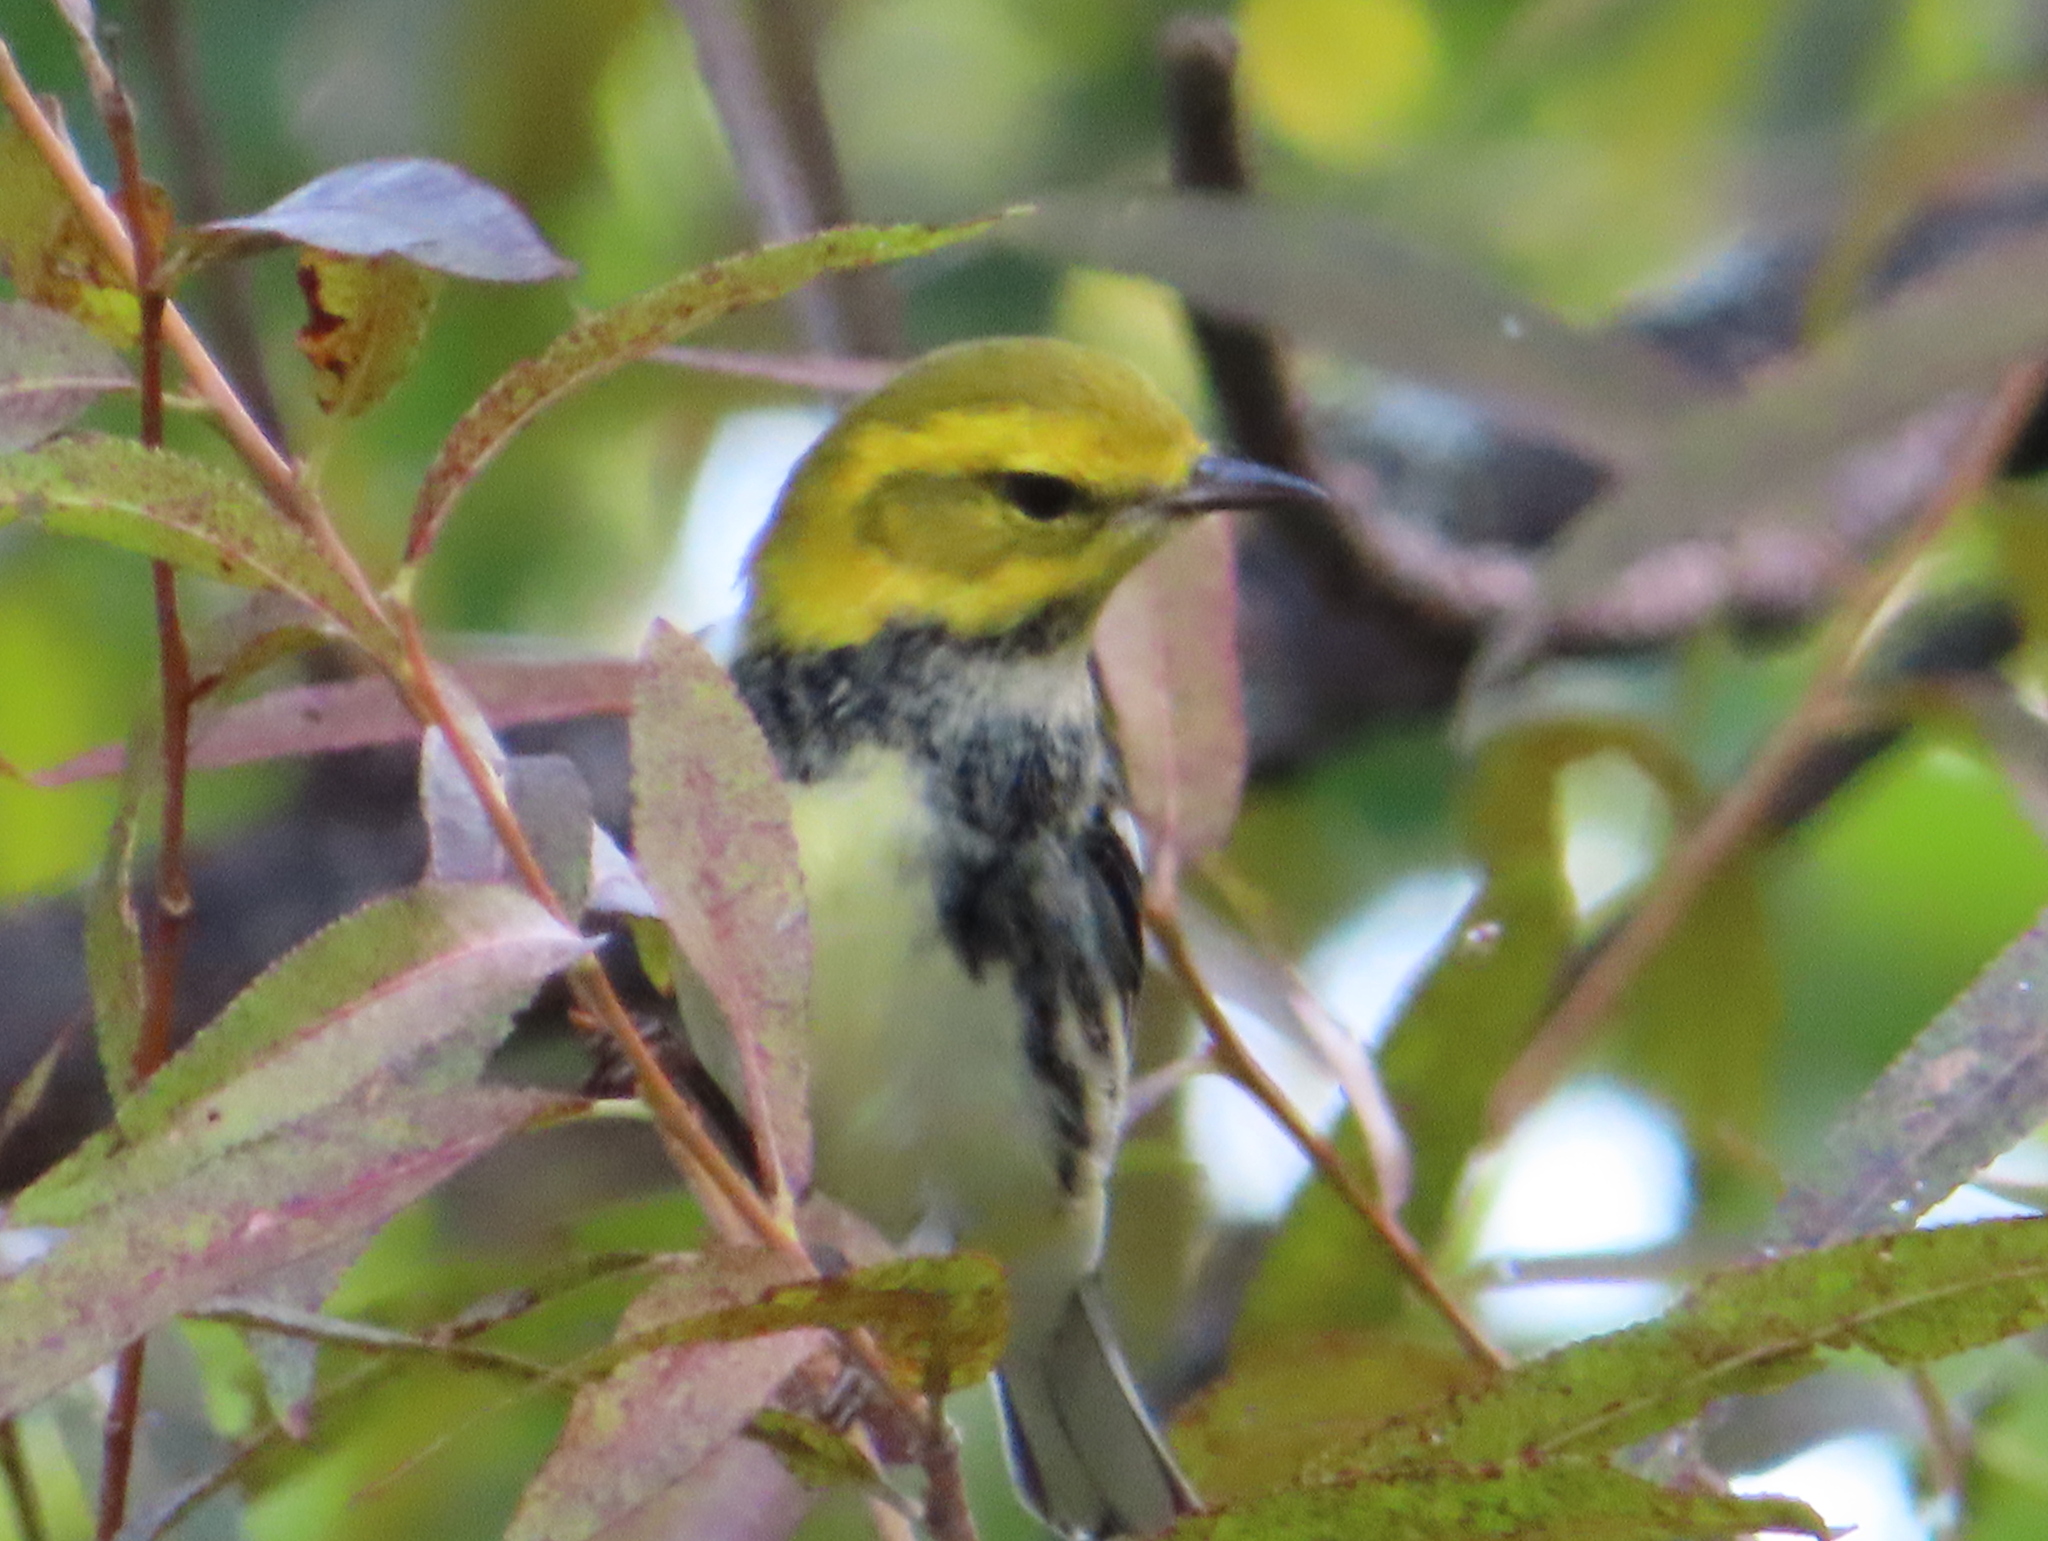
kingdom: Animalia
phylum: Chordata
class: Aves
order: Passeriformes
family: Parulidae
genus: Setophaga
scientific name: Setophaga virens
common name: Black-throated green warbler
